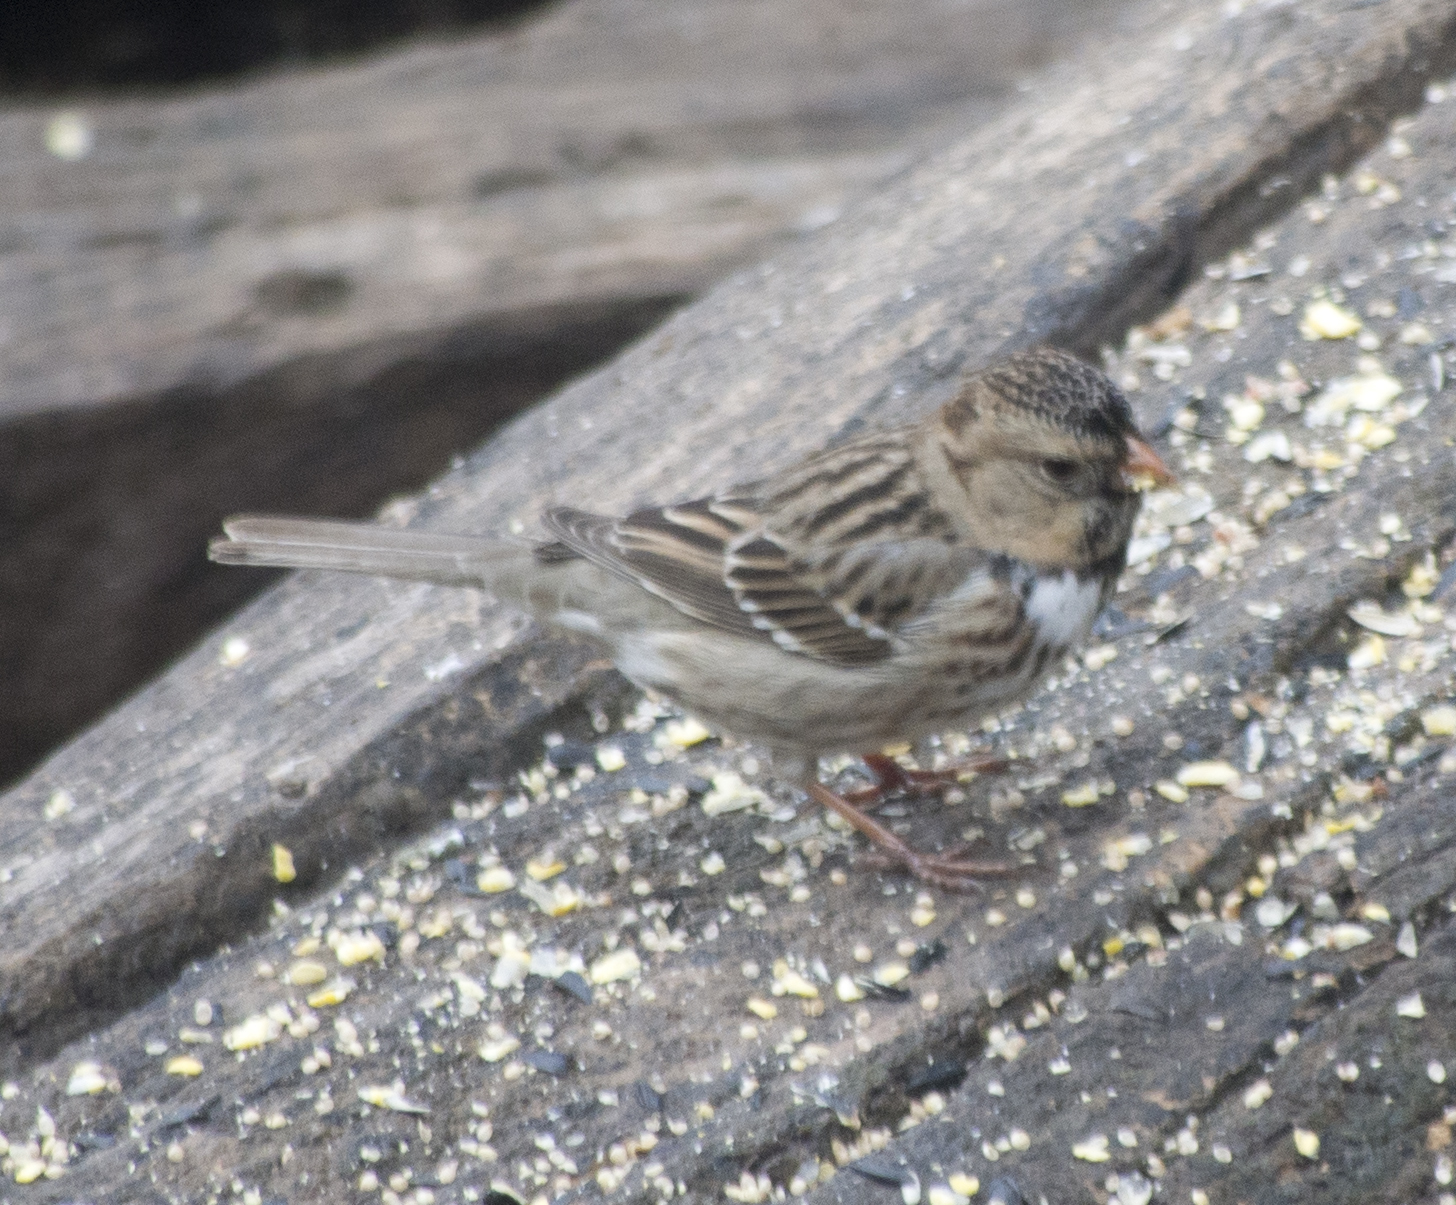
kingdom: Animalia
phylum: Chordata
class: Aves
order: Passeriformes
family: Passerellidae
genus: Zonotrichia
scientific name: Zonotrichia querula
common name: Harris's sparrow
